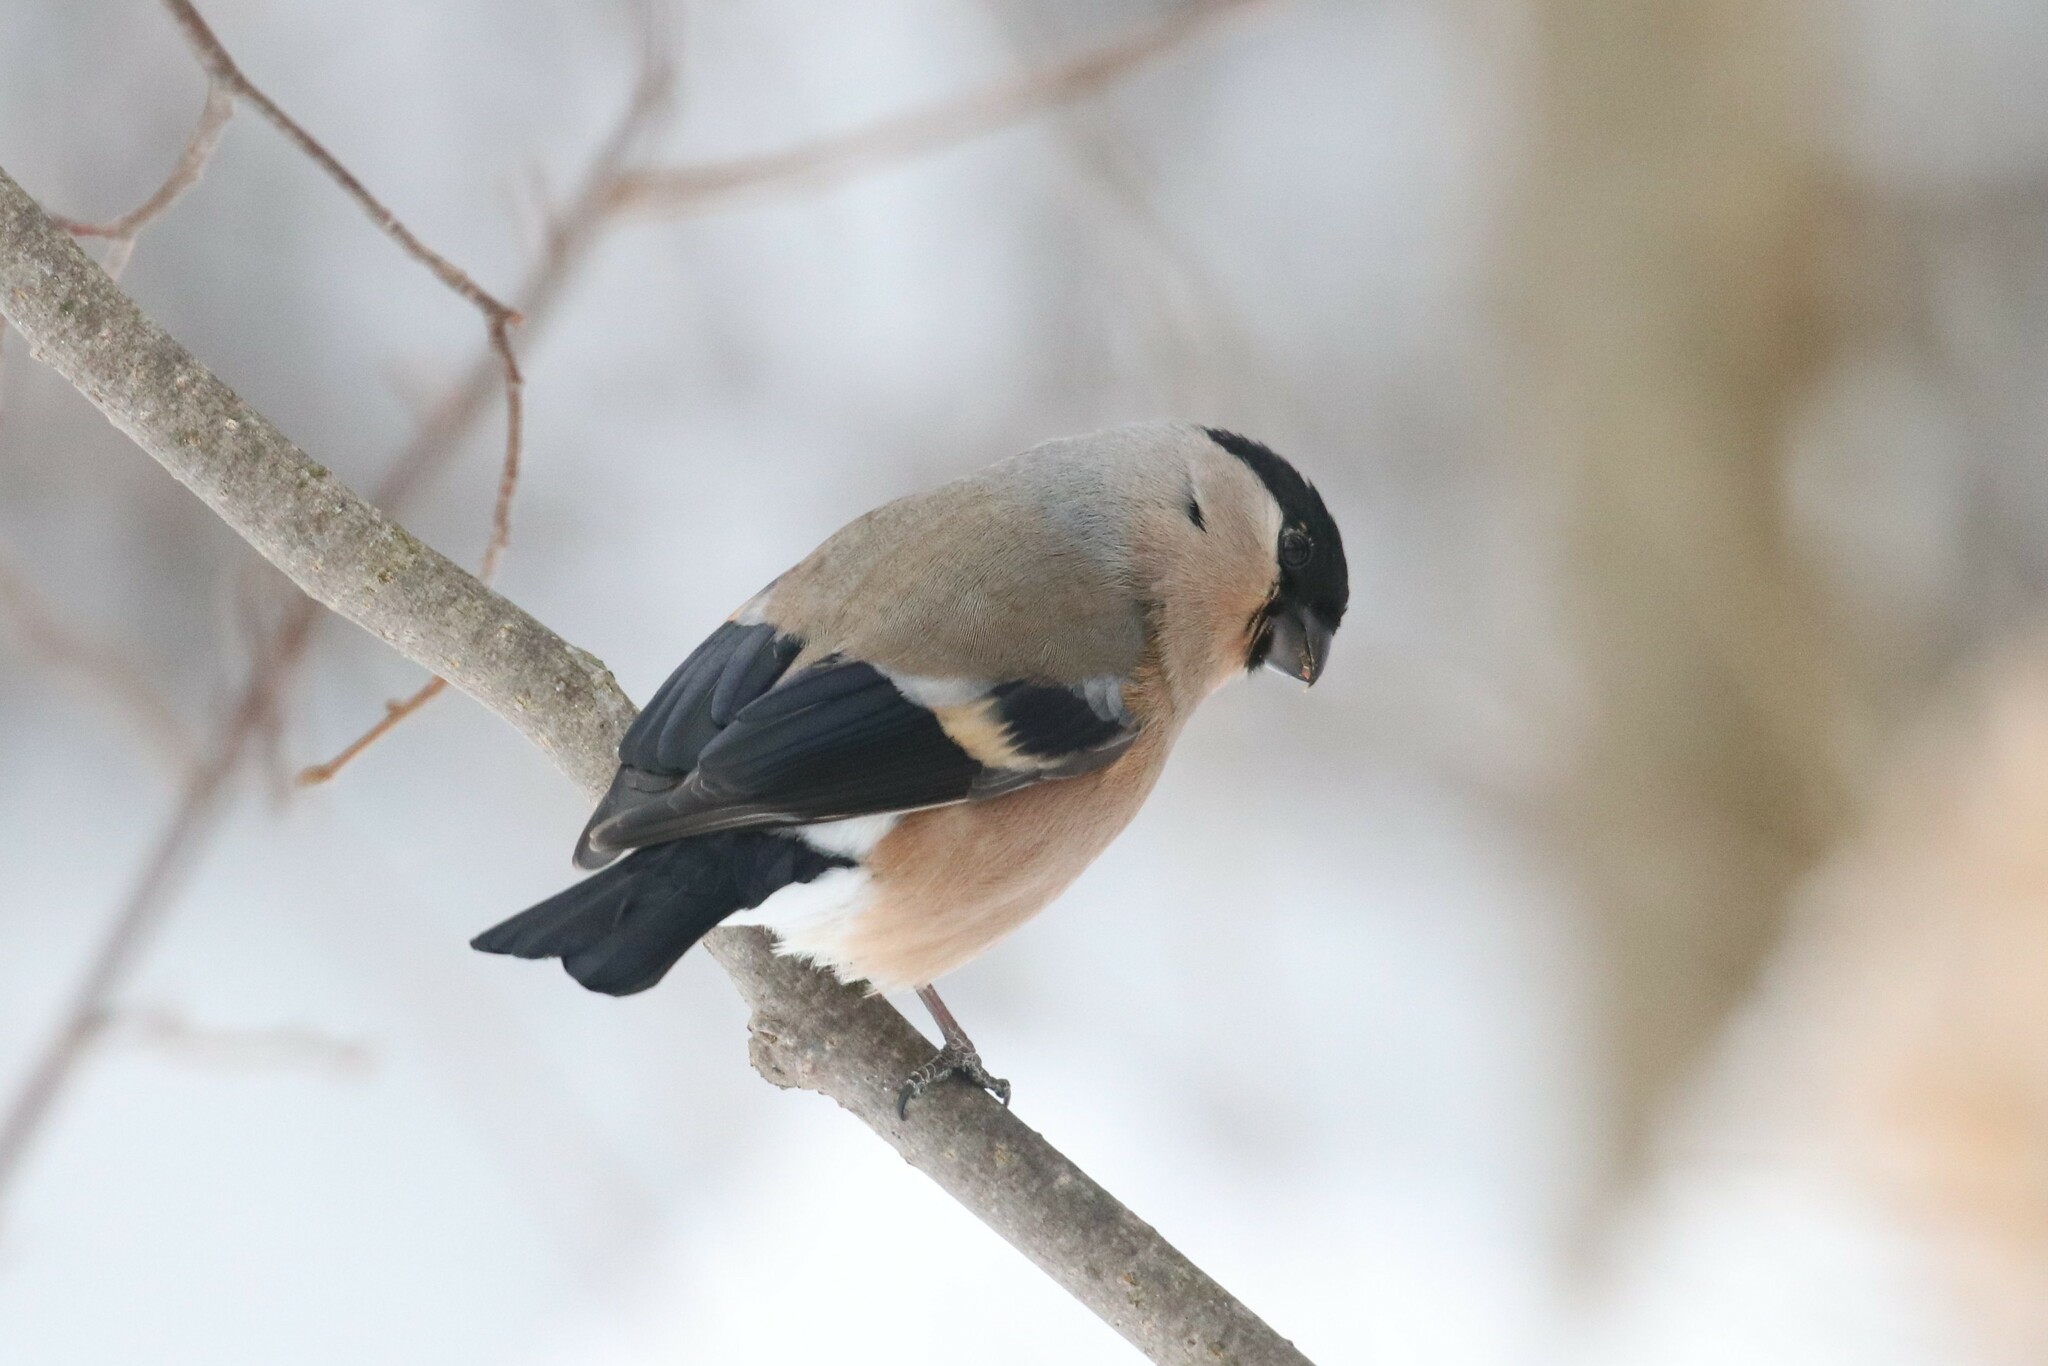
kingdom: Animalia
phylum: Chordata
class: Aves
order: Passeriformes
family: Fringillidae
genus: Pyrrhula
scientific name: Pyrrhula pyrrhula
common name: Eurasian bullfinch
